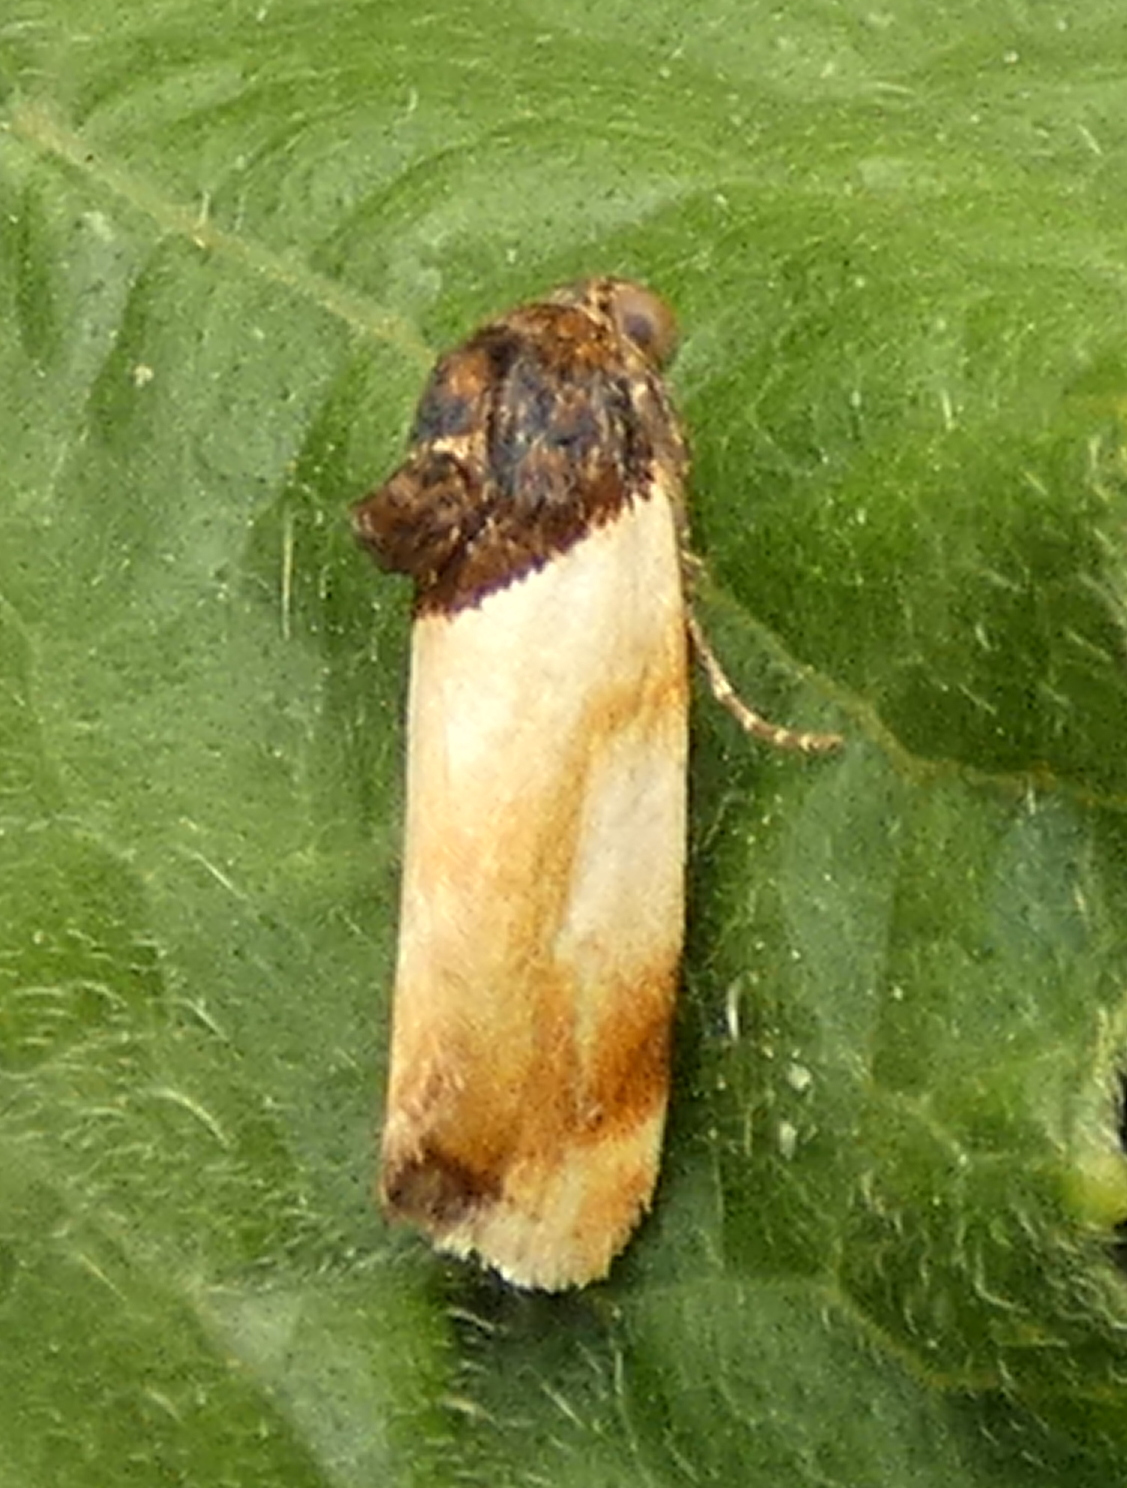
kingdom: Animalia
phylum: Arthropoda
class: Insecta
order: Lepidoptera
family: Noctuidae
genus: Spragueia
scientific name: Spragueia apicalis
